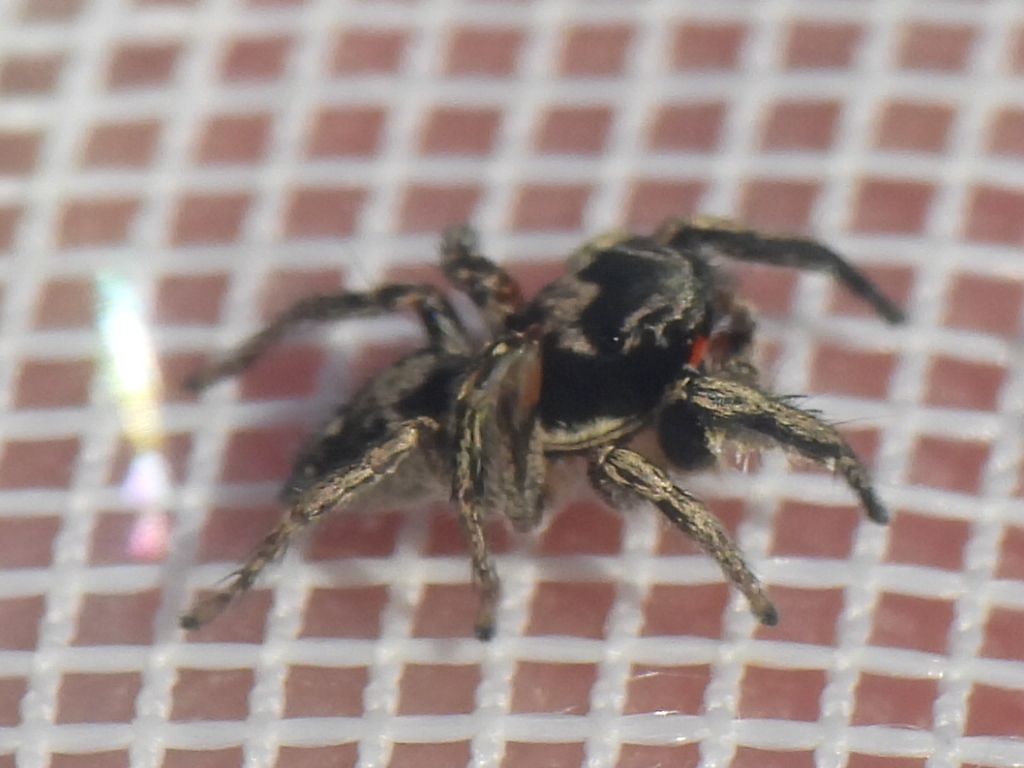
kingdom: Animalia
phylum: Arthropoda
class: Arachnida
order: Araneae
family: Salticidae
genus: Habronattus
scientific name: Habronattus coecatus
